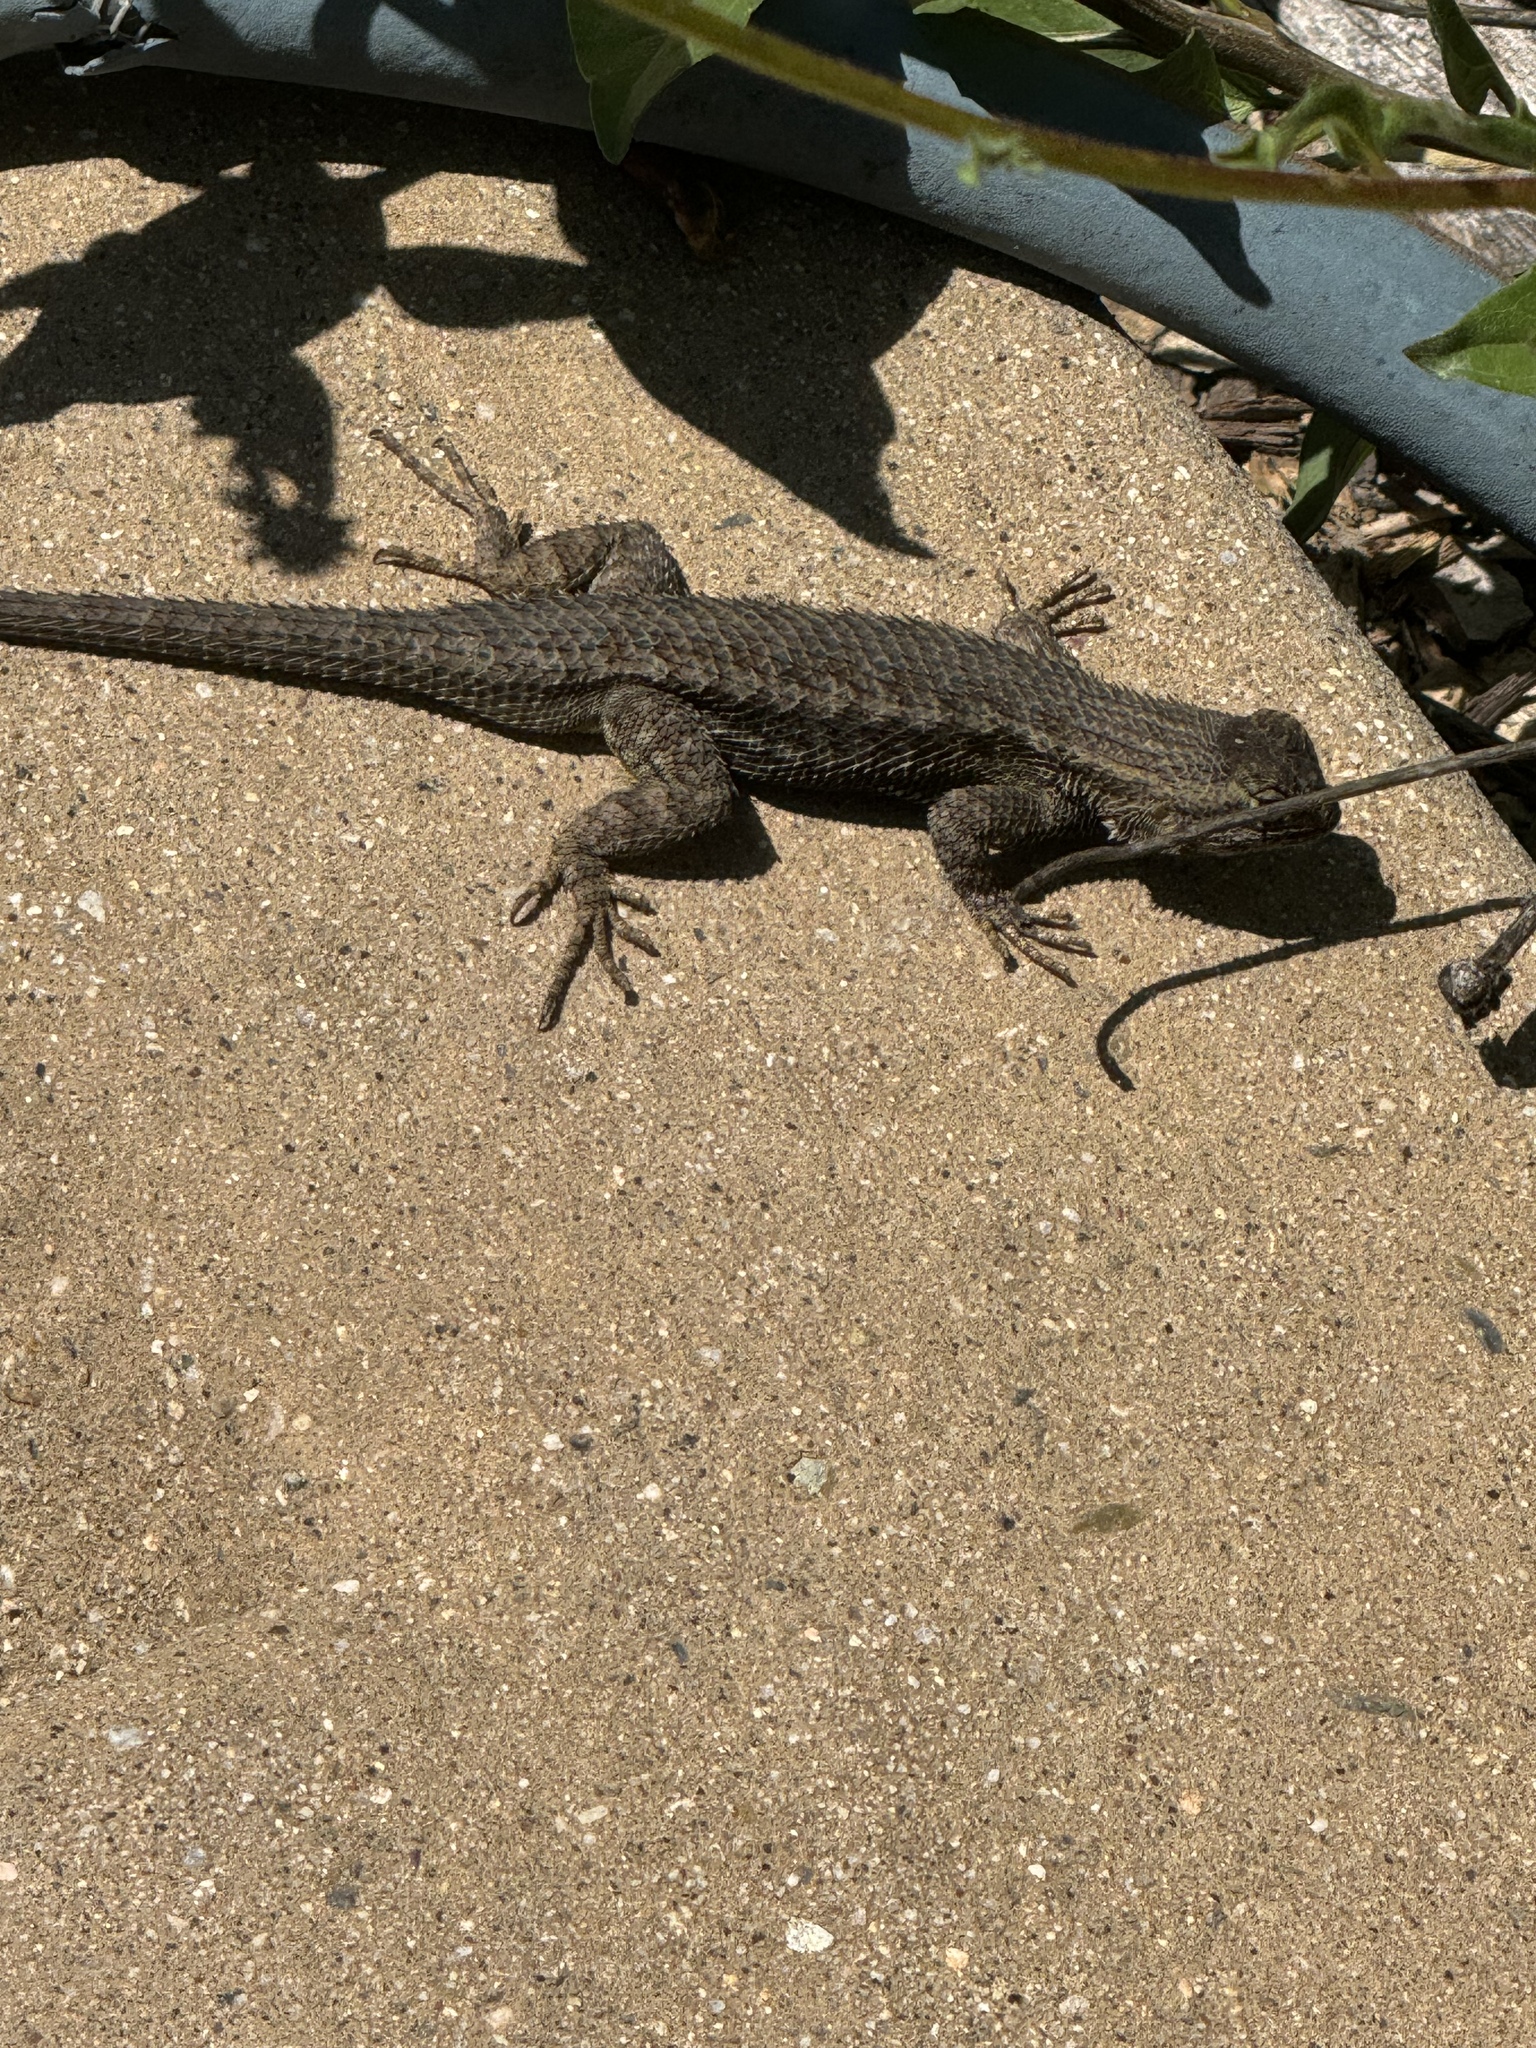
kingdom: Animalia
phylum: Chordata
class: Squamata
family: Phrynosomatidae
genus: Sceloporus
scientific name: Sceloporus occidentalis
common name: Western fence lizard
